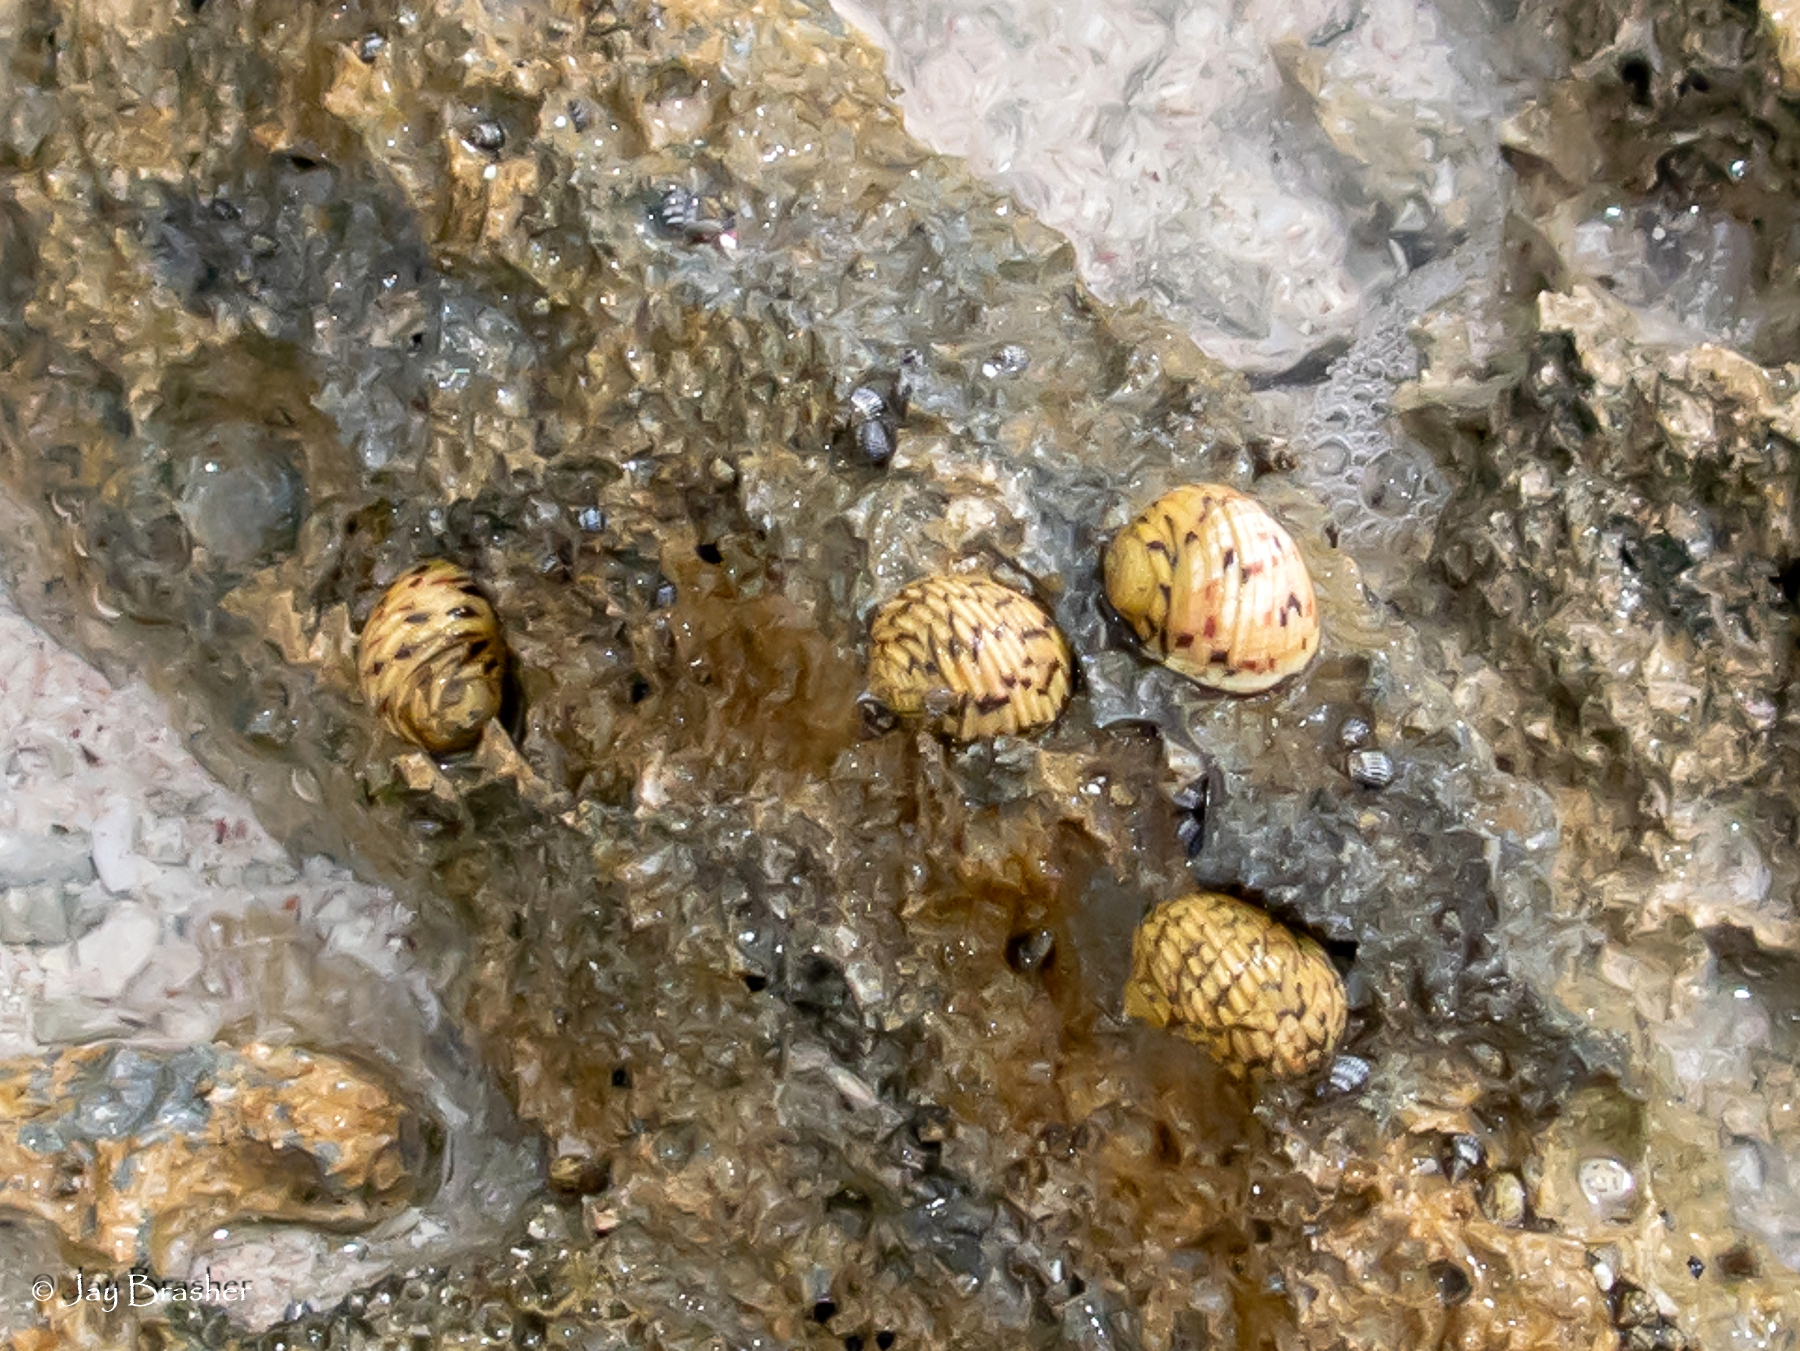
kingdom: Animalia
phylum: Mollusca
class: Gastropoda
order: Cycloneritida
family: Neritidae
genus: Nerita
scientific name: Nerita versicolor
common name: Four-tooth nerite
